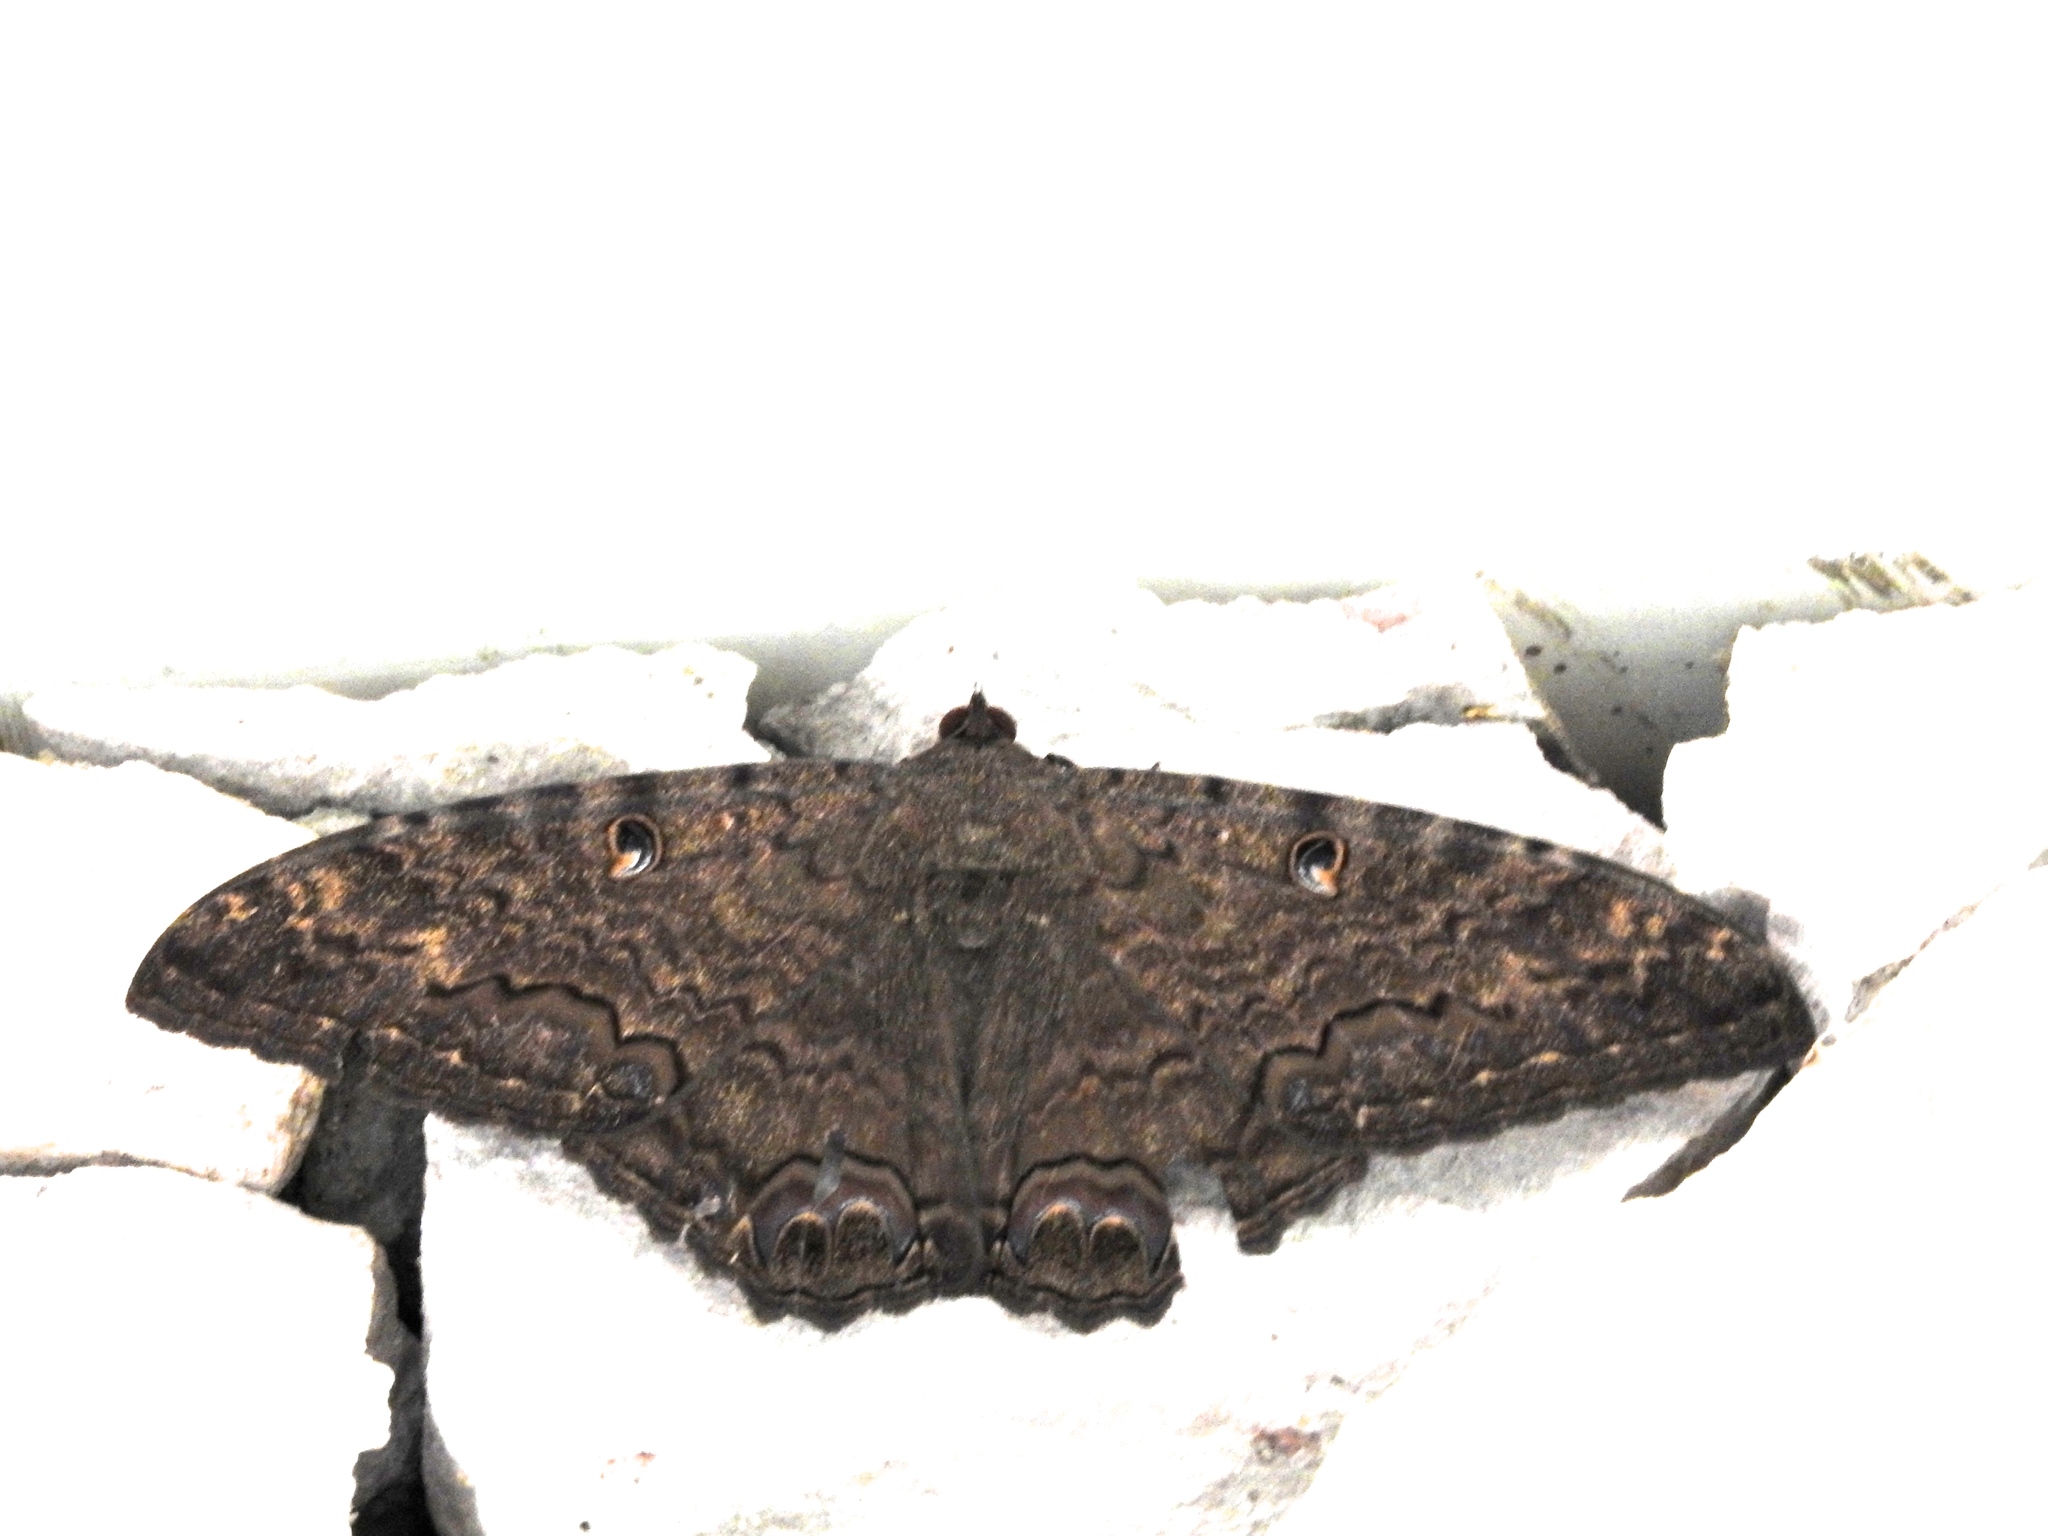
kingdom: Animalia
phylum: Arthropoda
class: Insecta
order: Lepidoptera
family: Erebidae
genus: Ascalapha
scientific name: Ascalapha odorata
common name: Black witch
